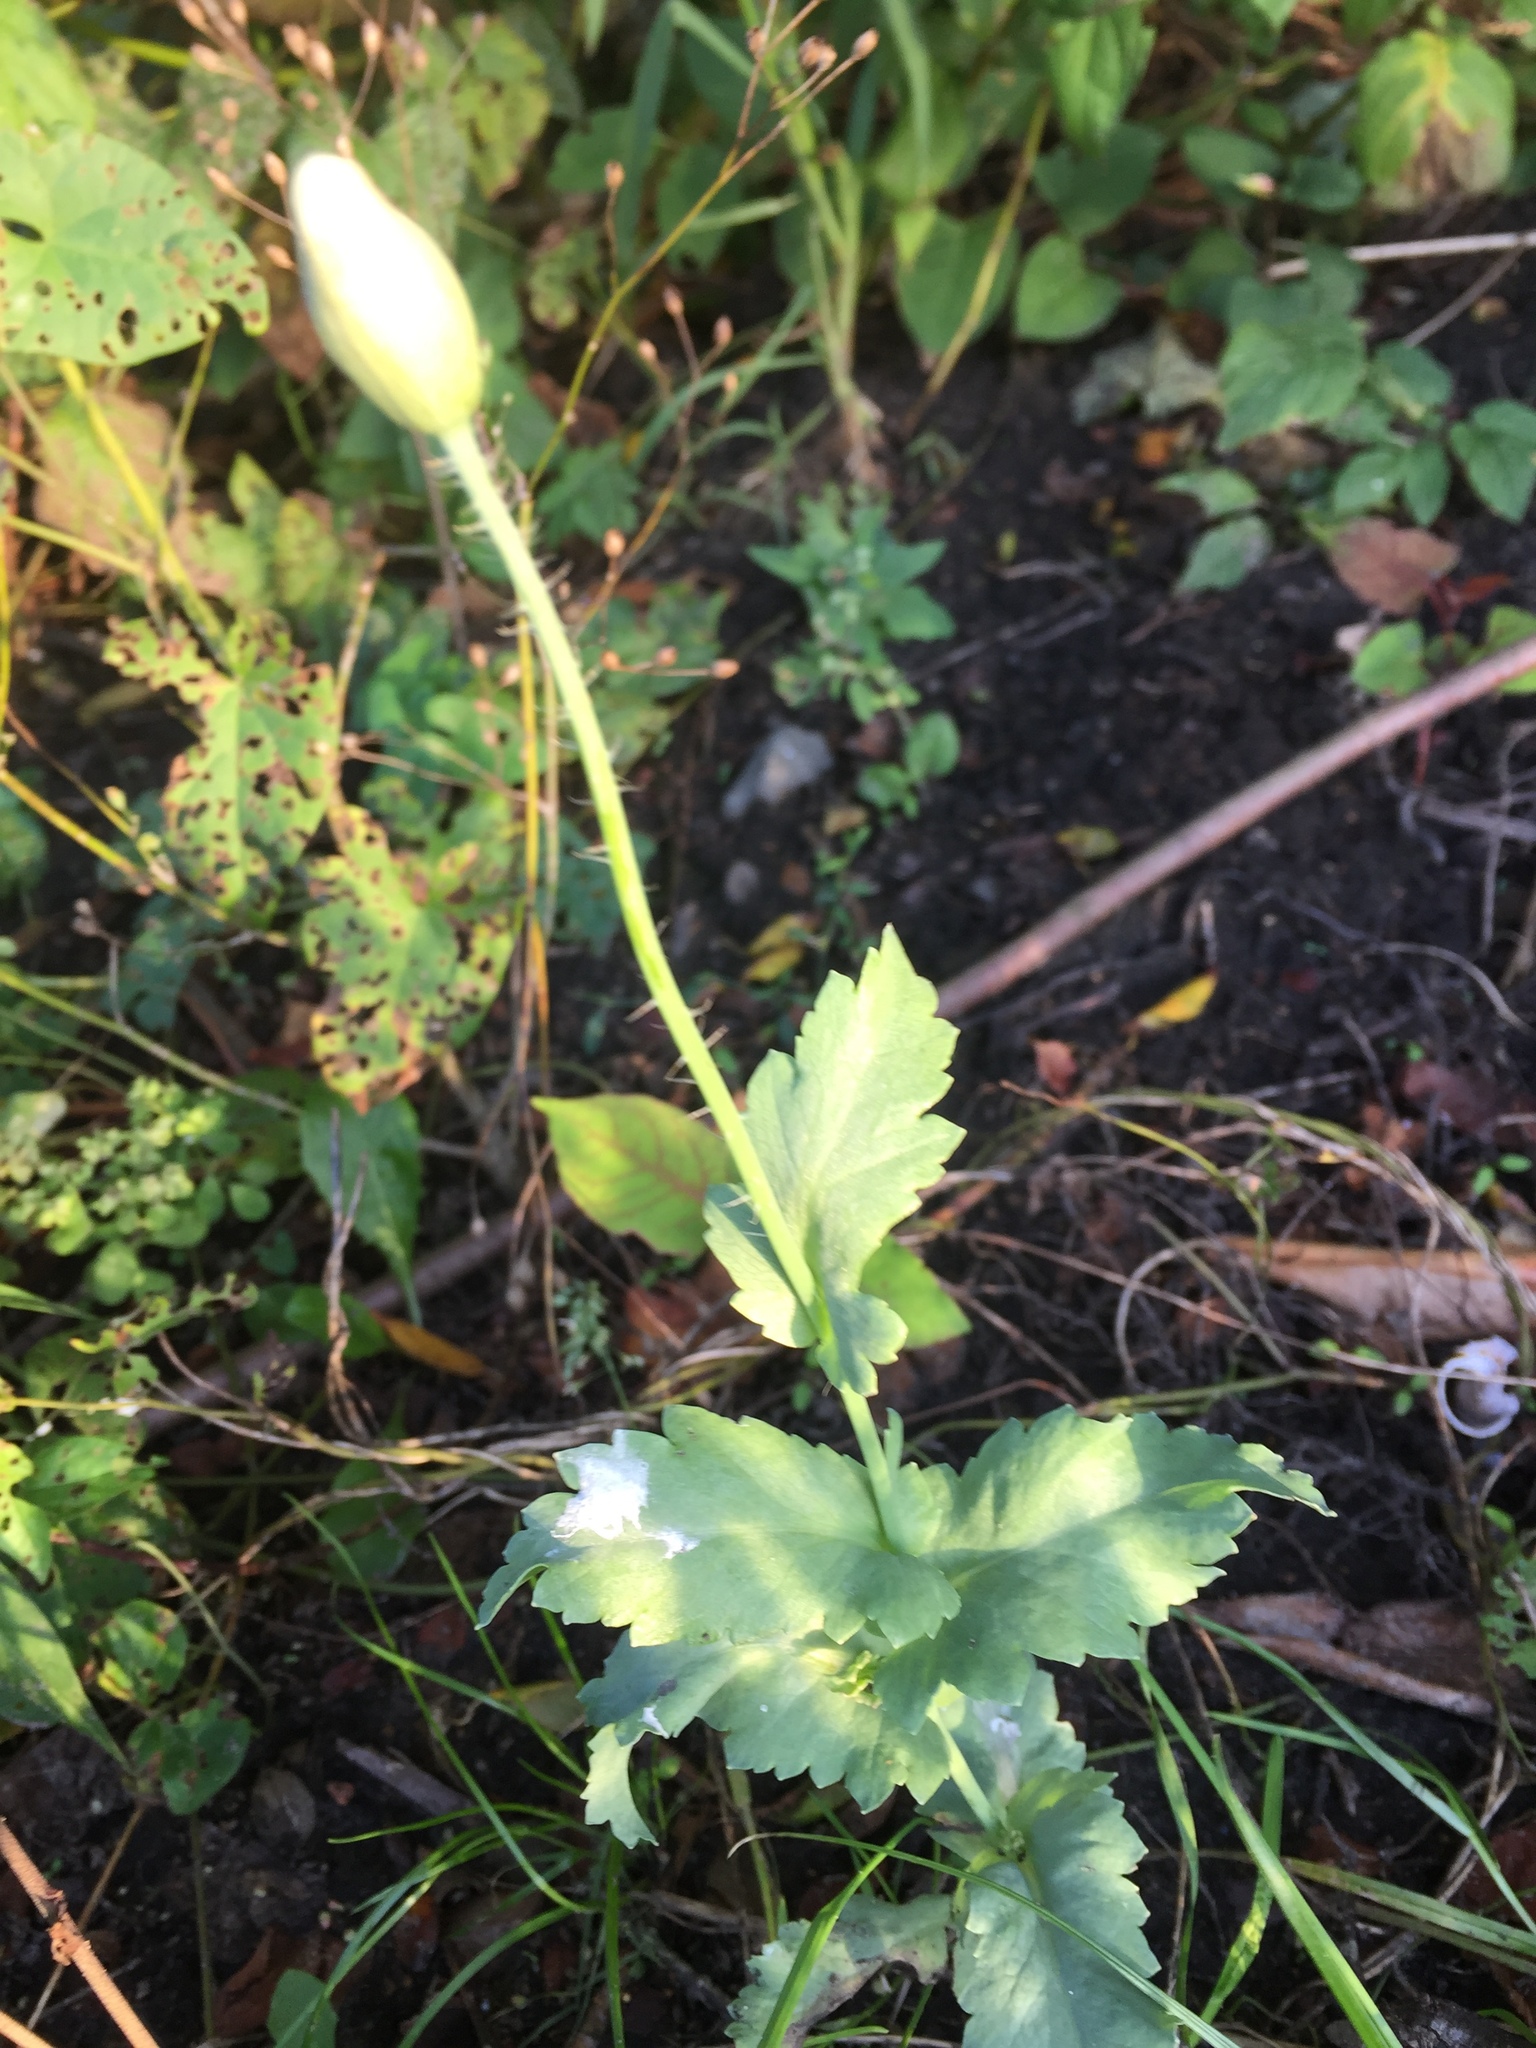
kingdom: Plantae
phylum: Tracheophyta
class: Magnoliopsida
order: Ranunculales
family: Papaveraceae
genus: Papaver
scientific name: Papaver somniferum
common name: Opium poppy
